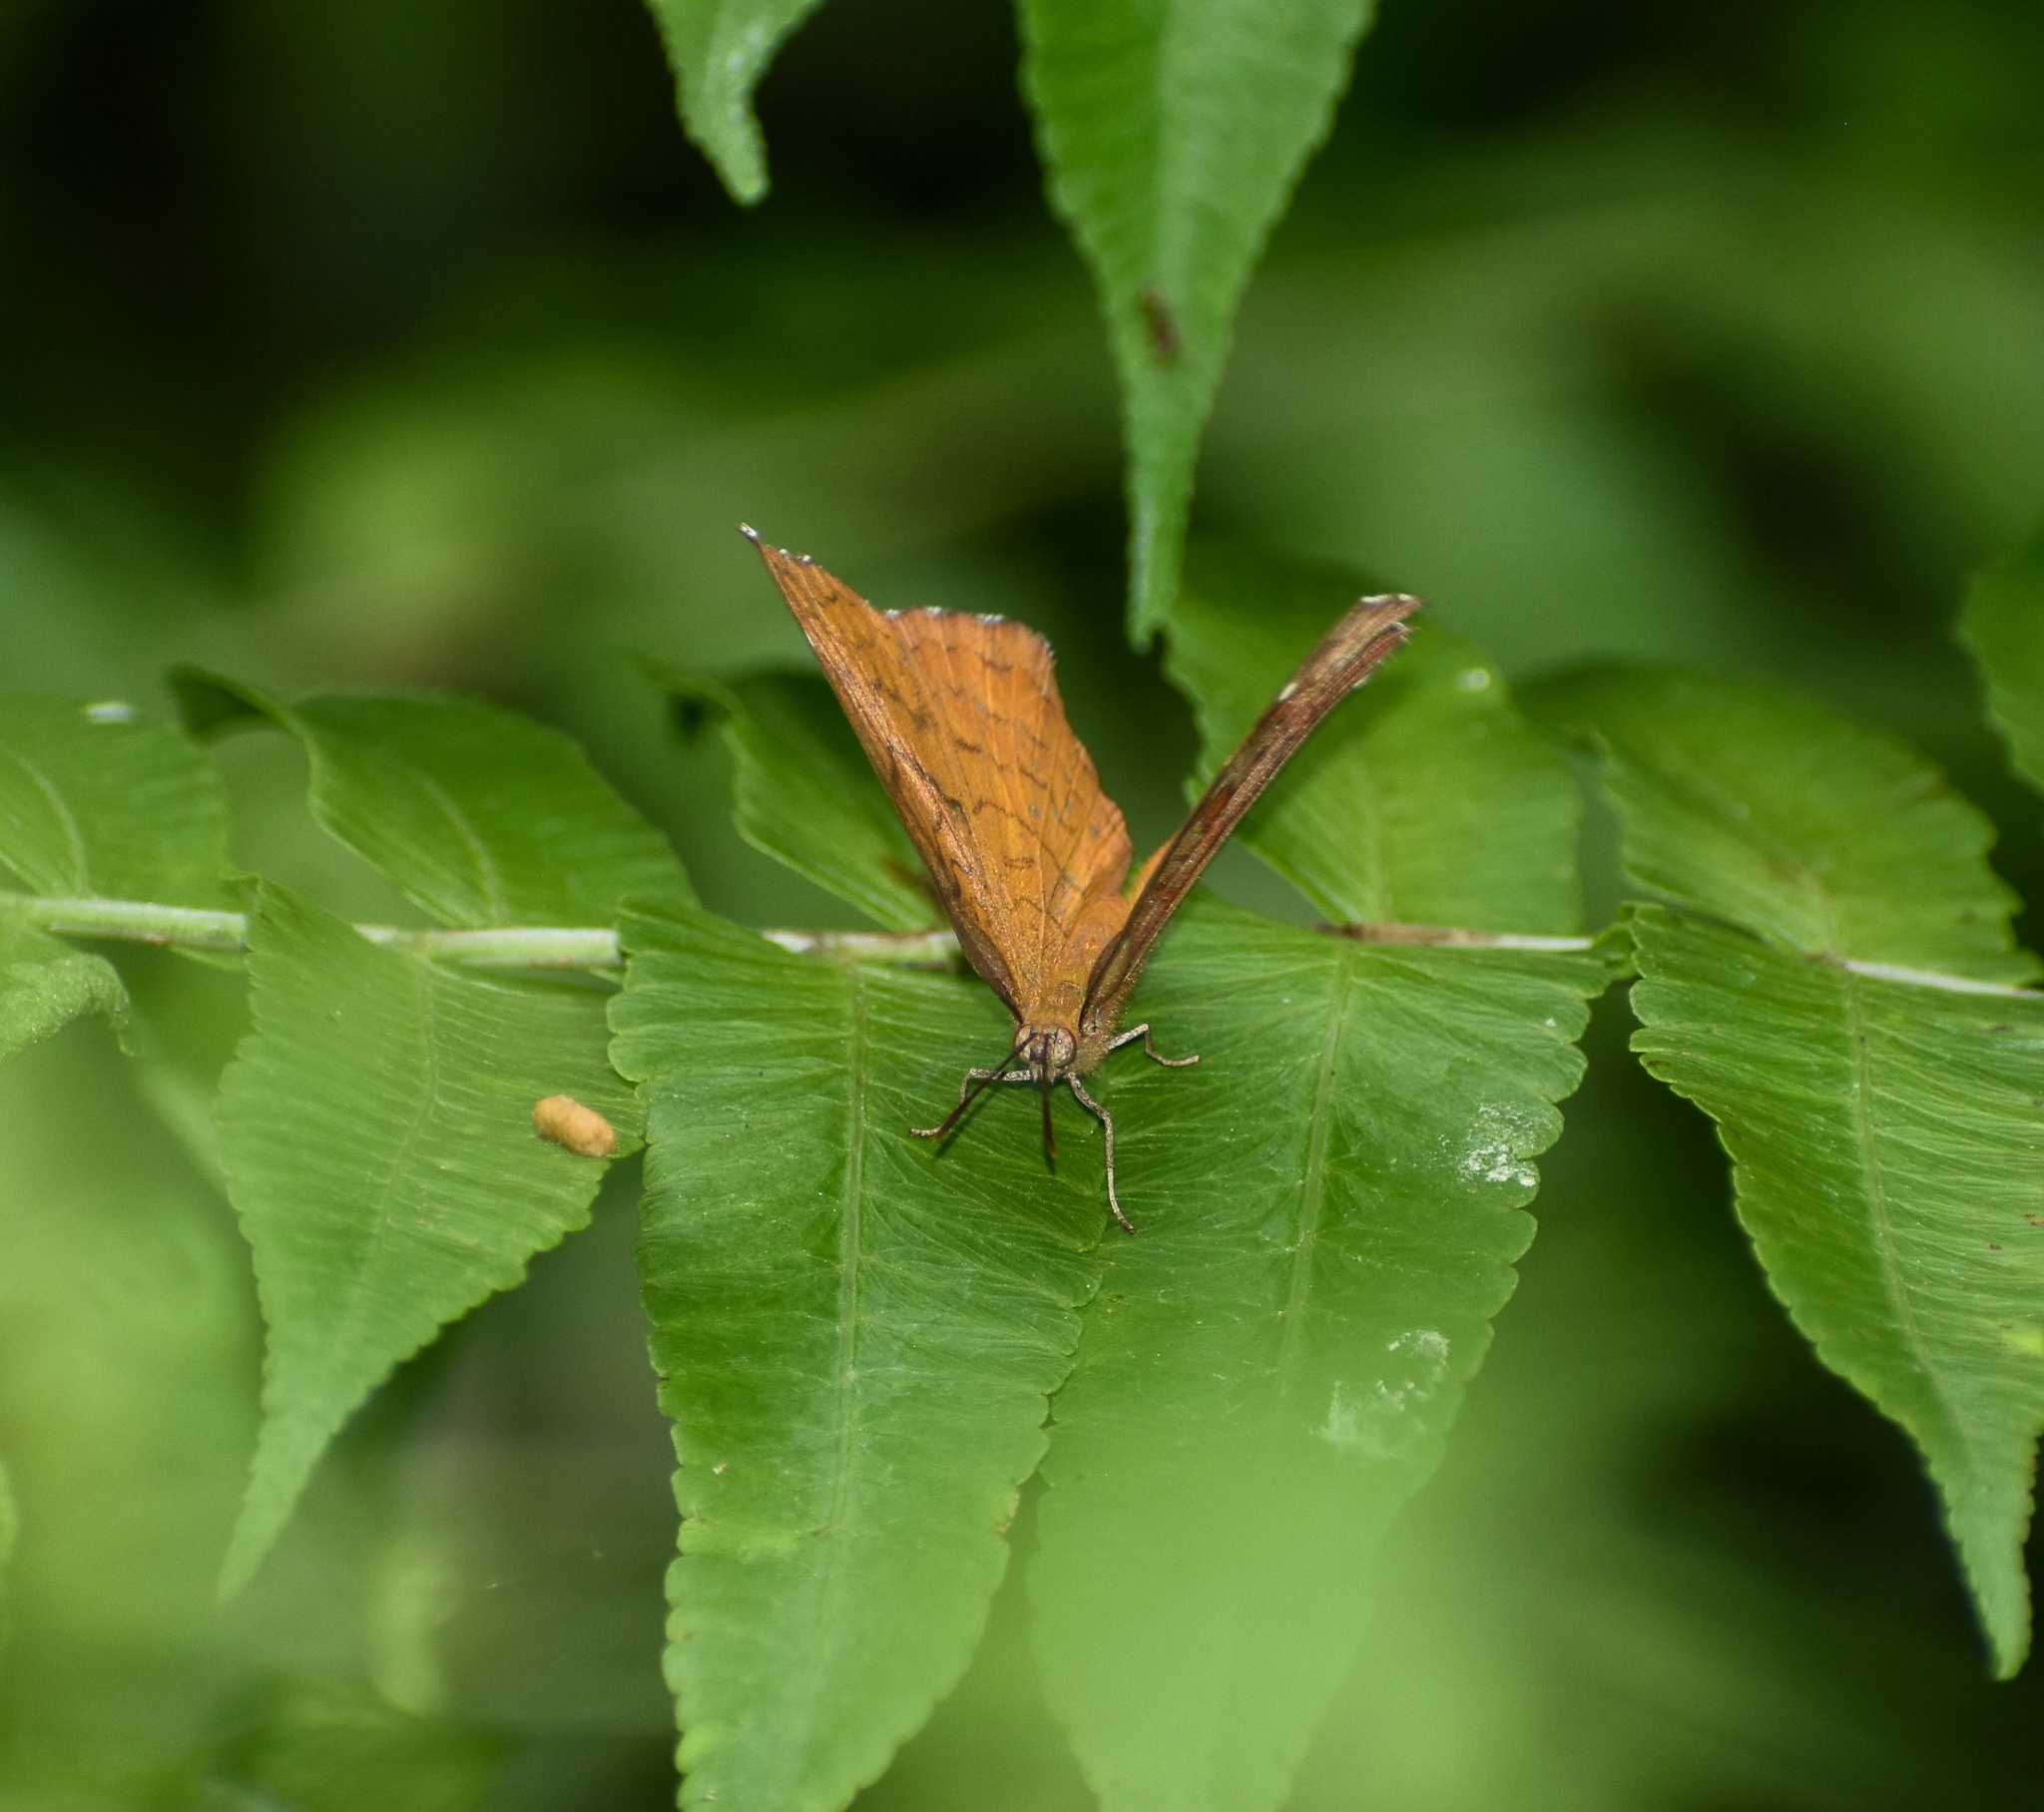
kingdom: Animalia
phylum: Arthropoda
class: Insecta
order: Lepidoptera
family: Nymphalidae
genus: Ariadne
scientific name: Ariadne ariadne
